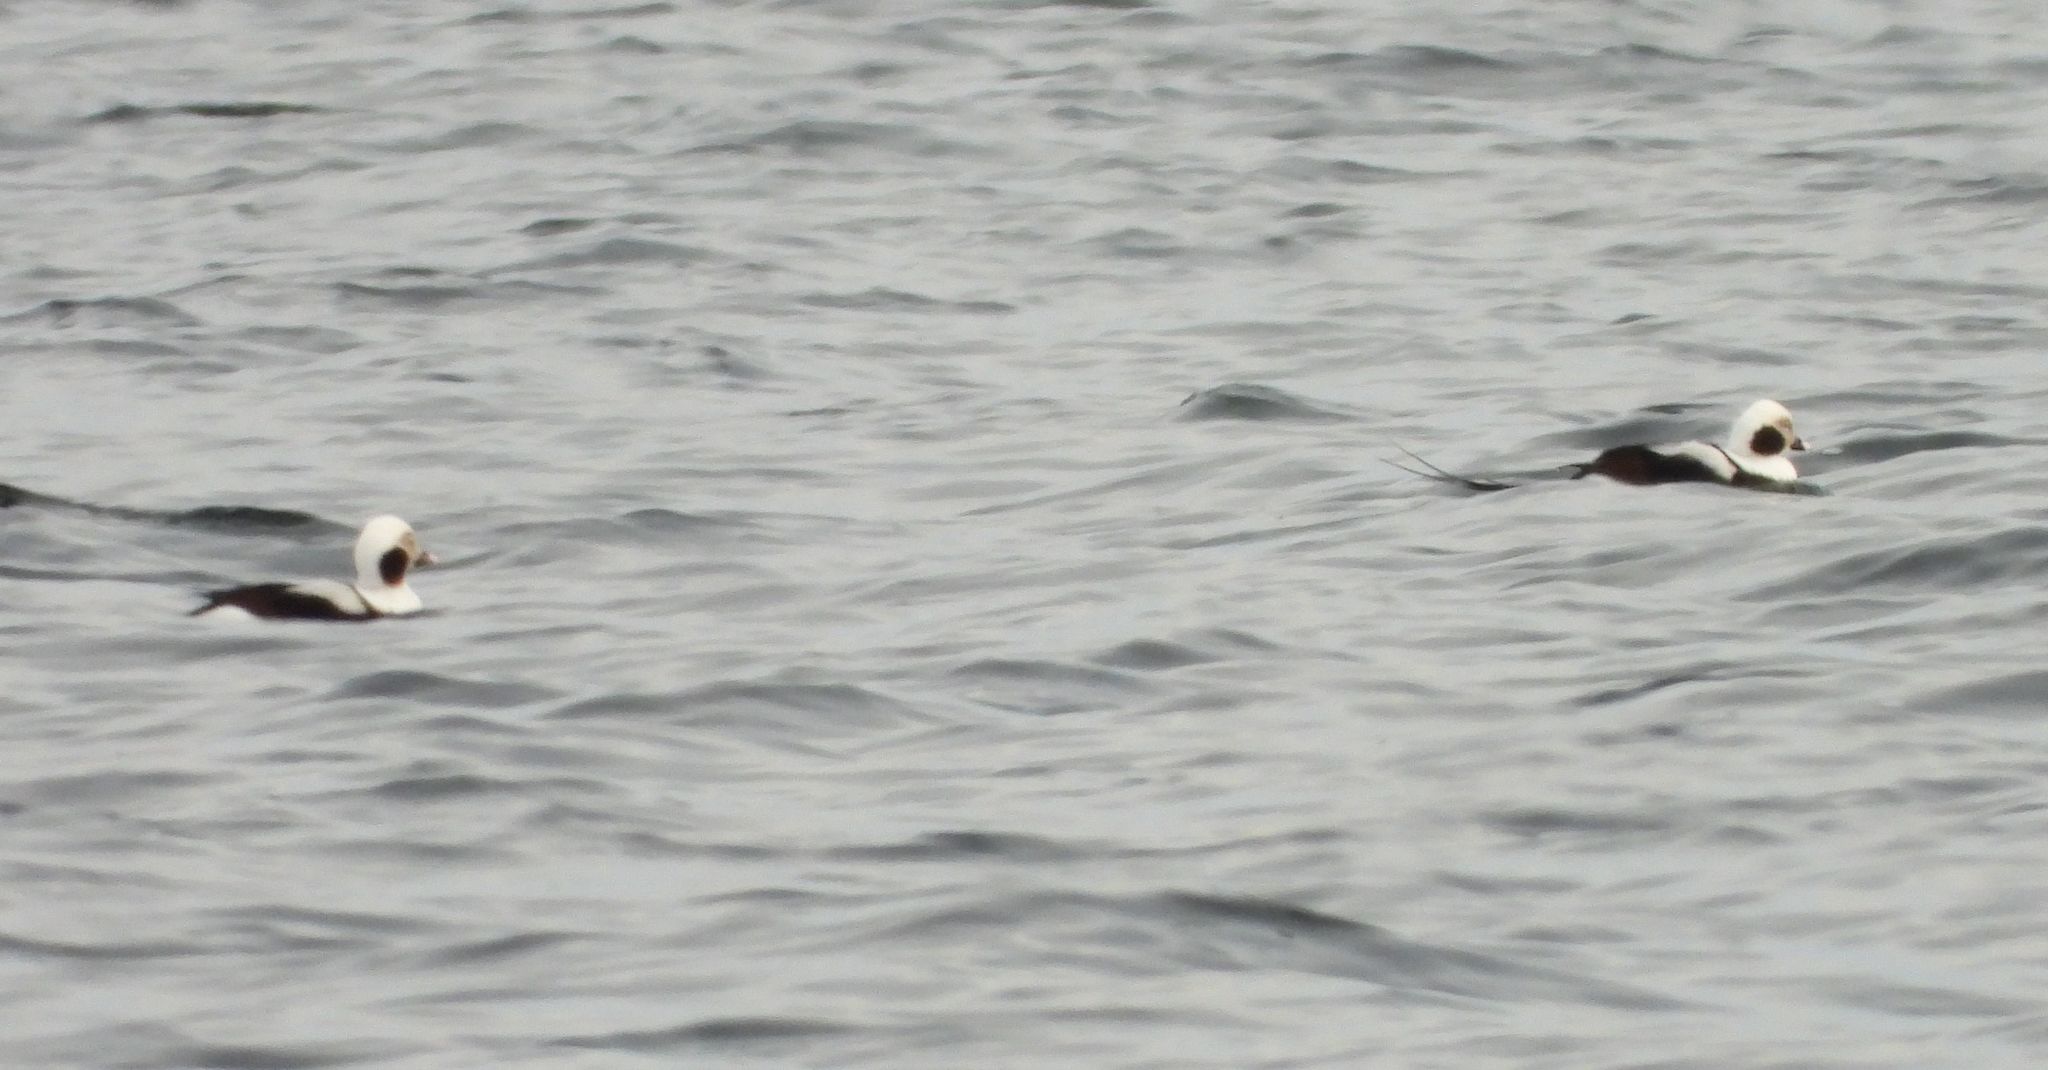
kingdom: Animalia
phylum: Chordata
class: Aves
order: Anseriformes
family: Anatidae
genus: Clangula
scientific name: Clangula hyemalis
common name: Long-tailed duck
